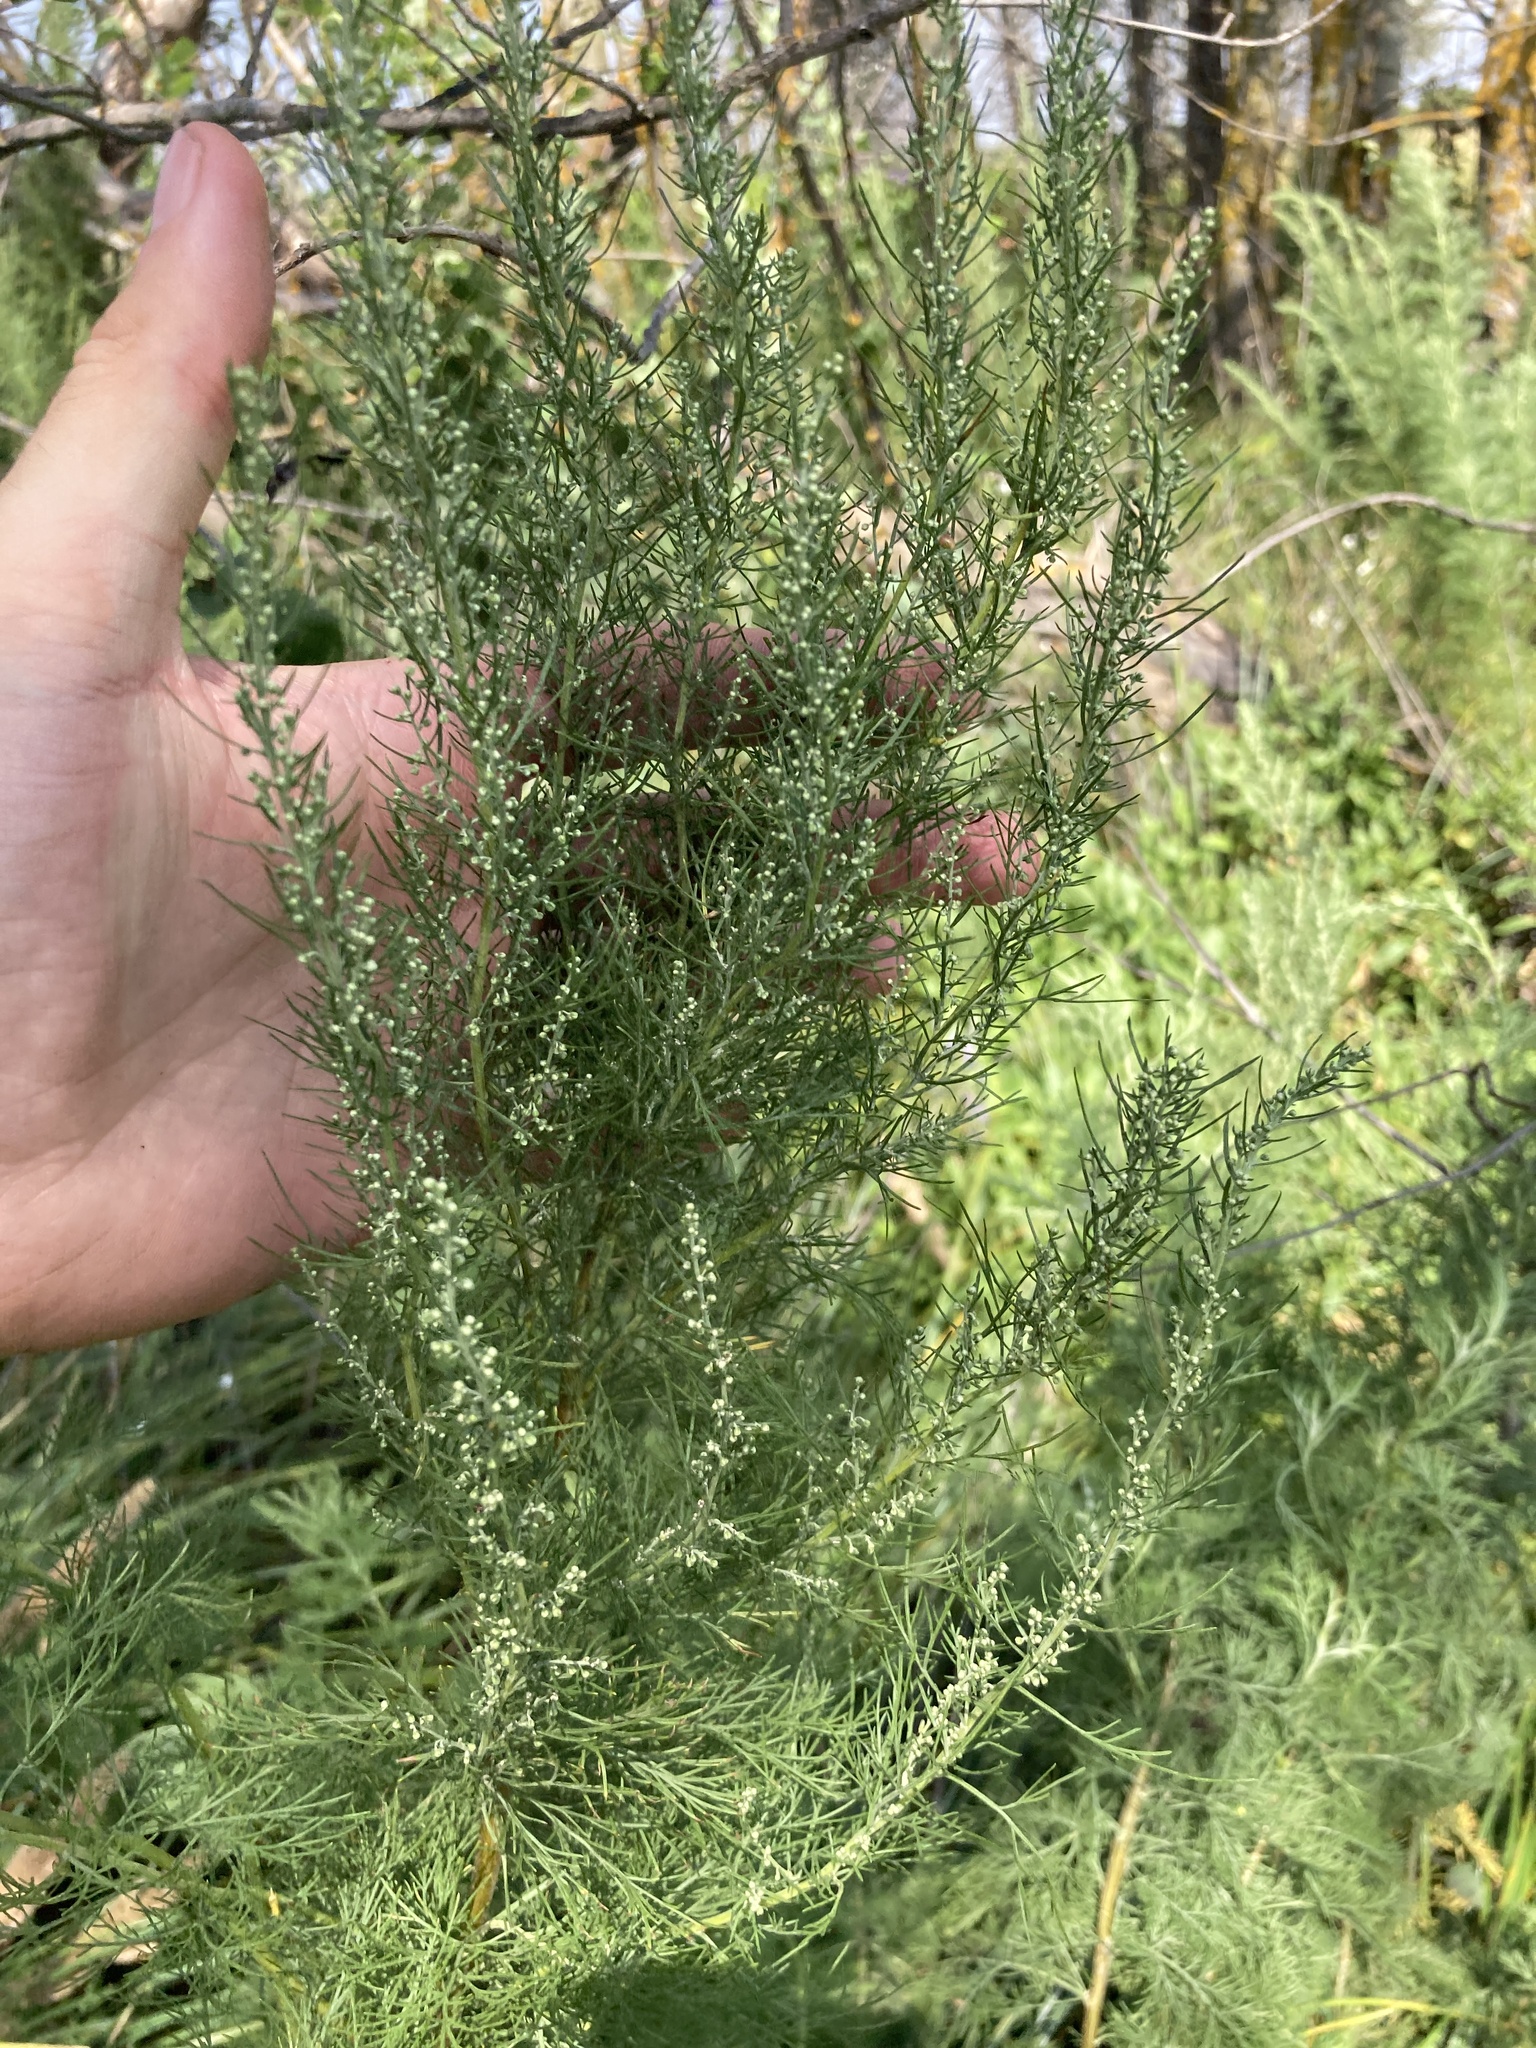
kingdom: Plantae
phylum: Tracheophyta
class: Magnoliopsida
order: Asterales
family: Asteraceae
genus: Artemisia
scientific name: Artemisia abrotanum
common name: Southernwood
